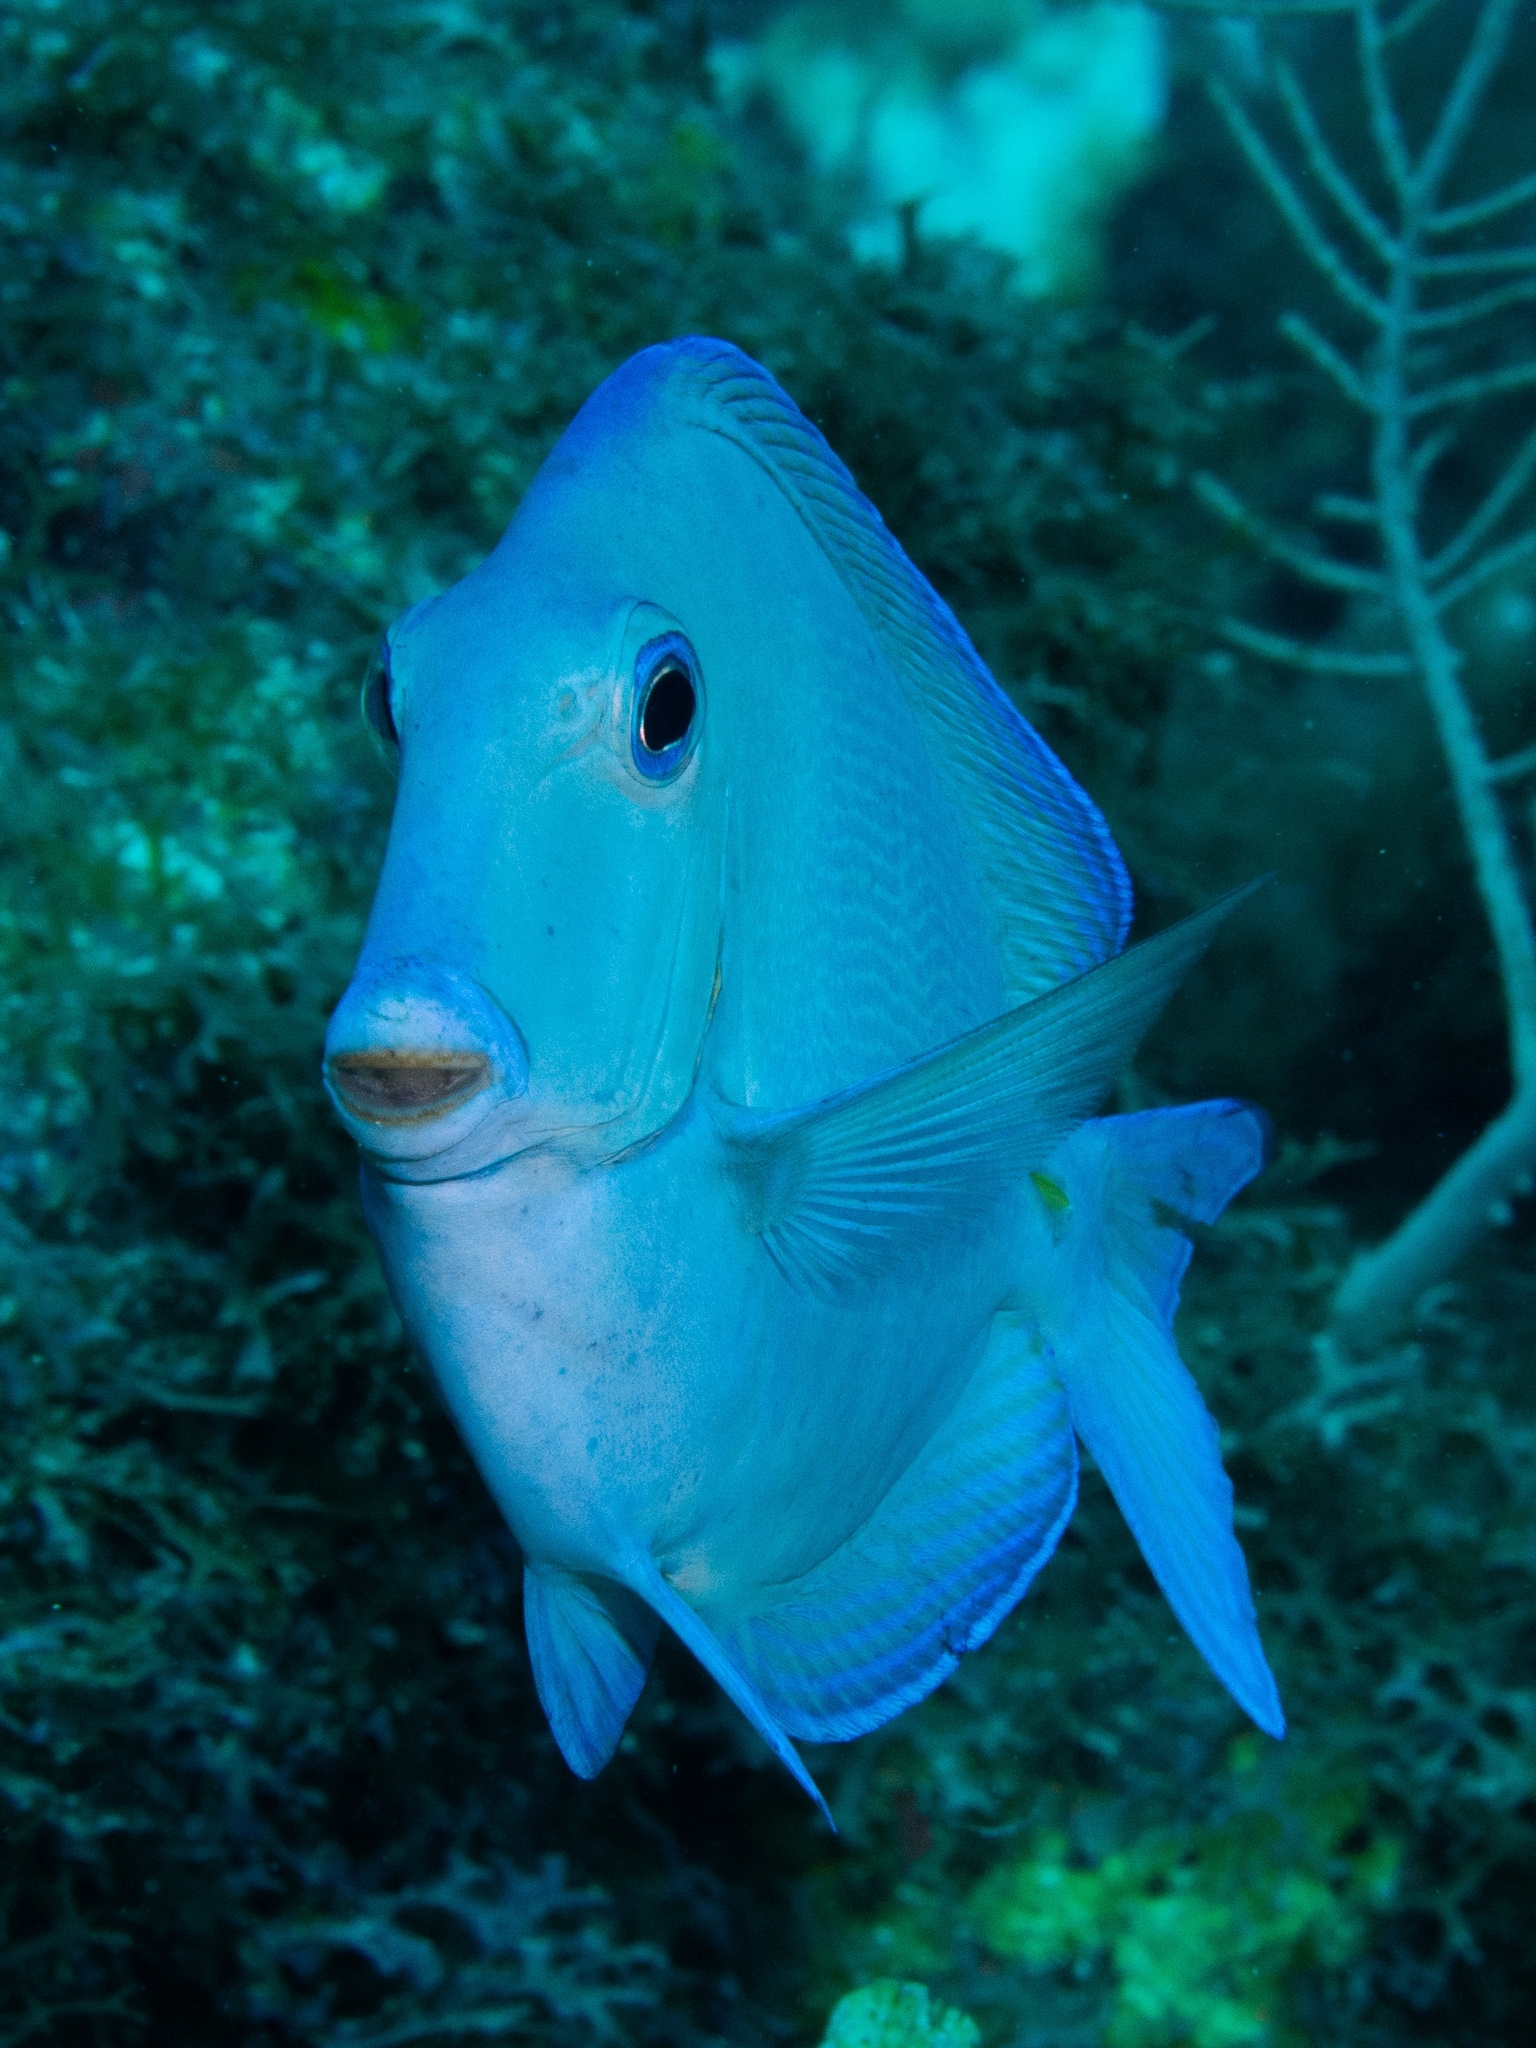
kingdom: Animalia
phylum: Chordata
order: Perciformes
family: Acanthuridae
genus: Acanthurus
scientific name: Acanthurus coeruleus
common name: Blue tang
